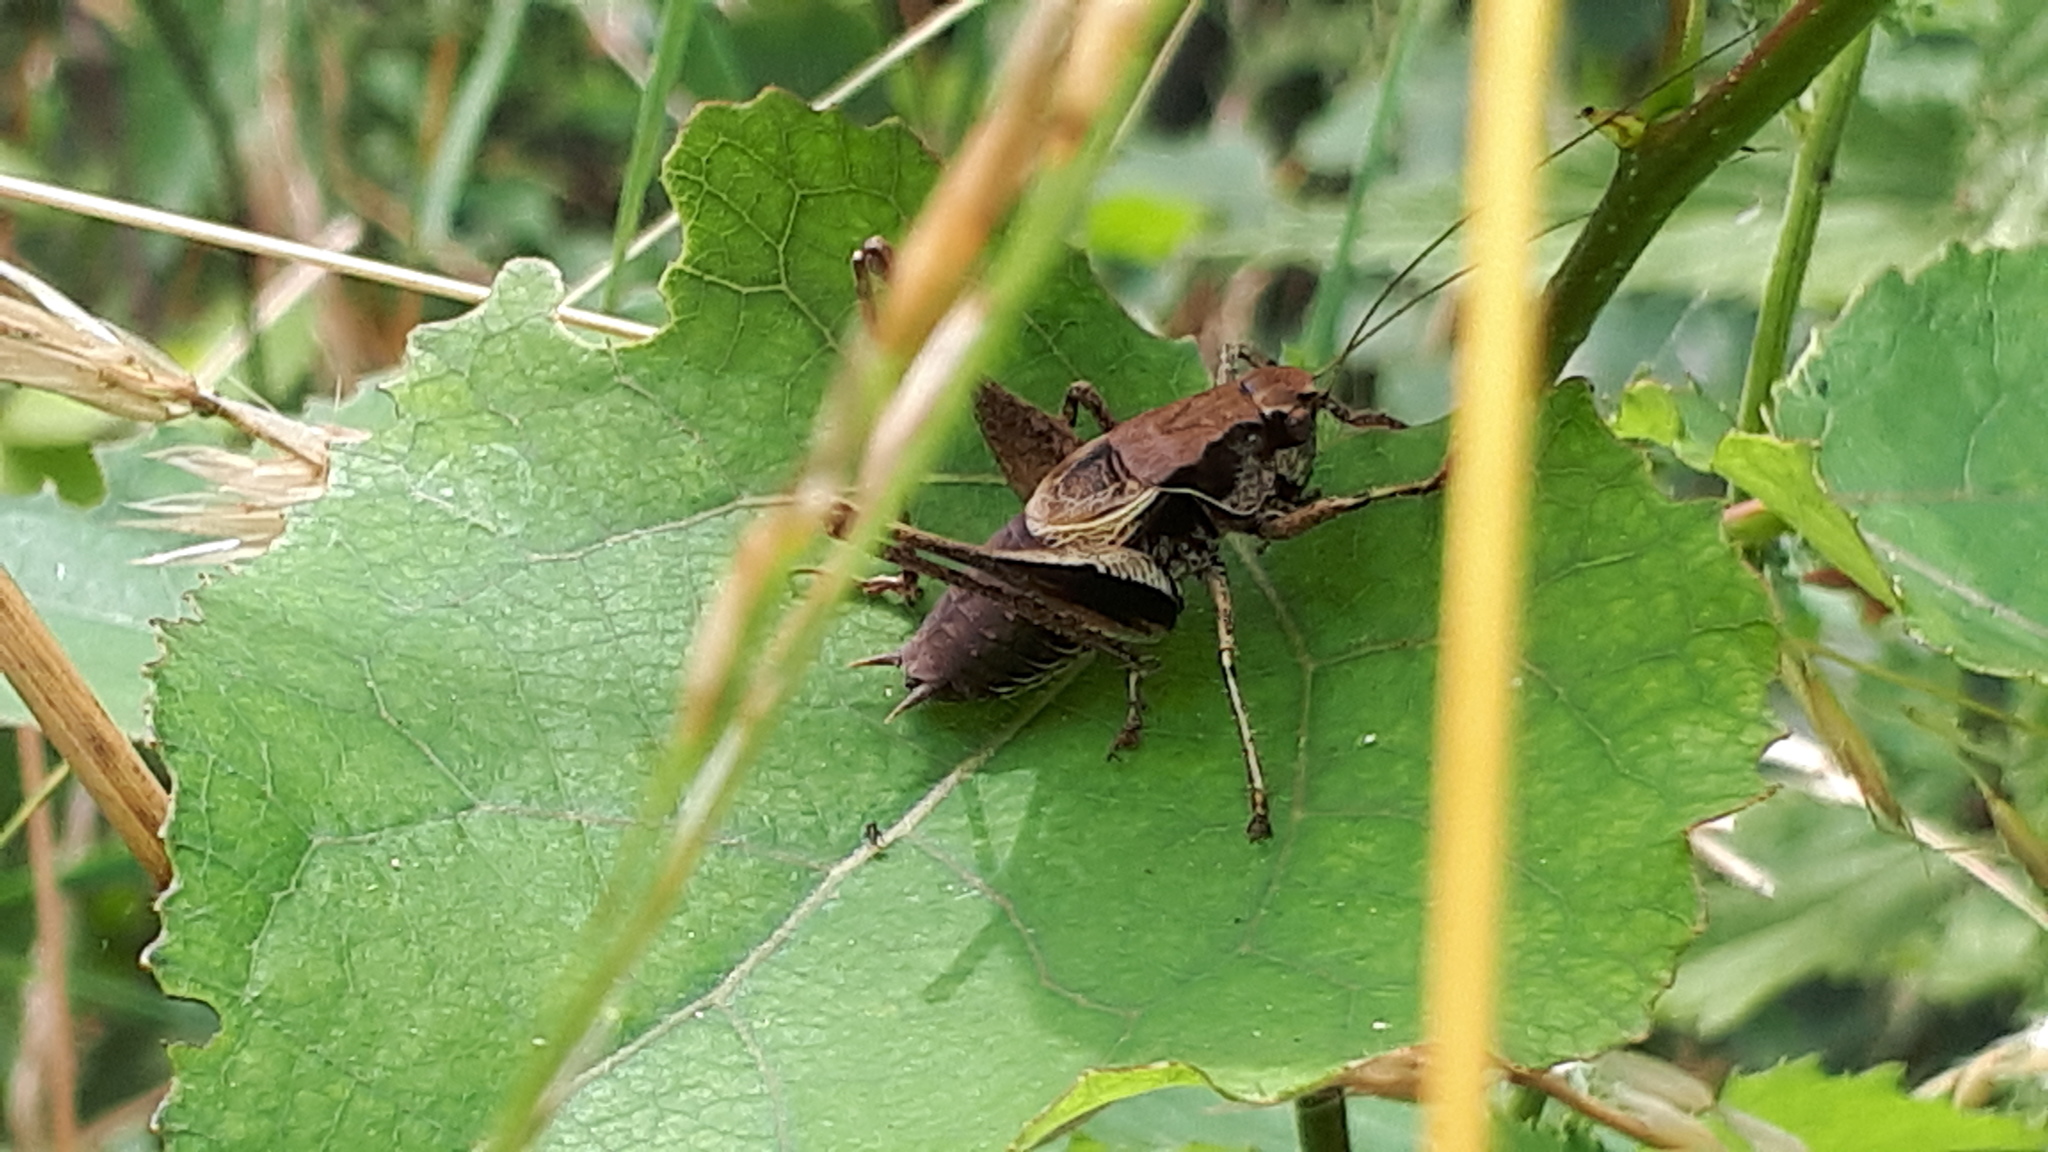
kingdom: Animalia
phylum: Arthropoda
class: Insecta
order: Orthoptera
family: Tettigoniidae
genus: Pholidoptera
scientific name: Pholidoptera griseoaptera
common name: Dark bush-cricket
